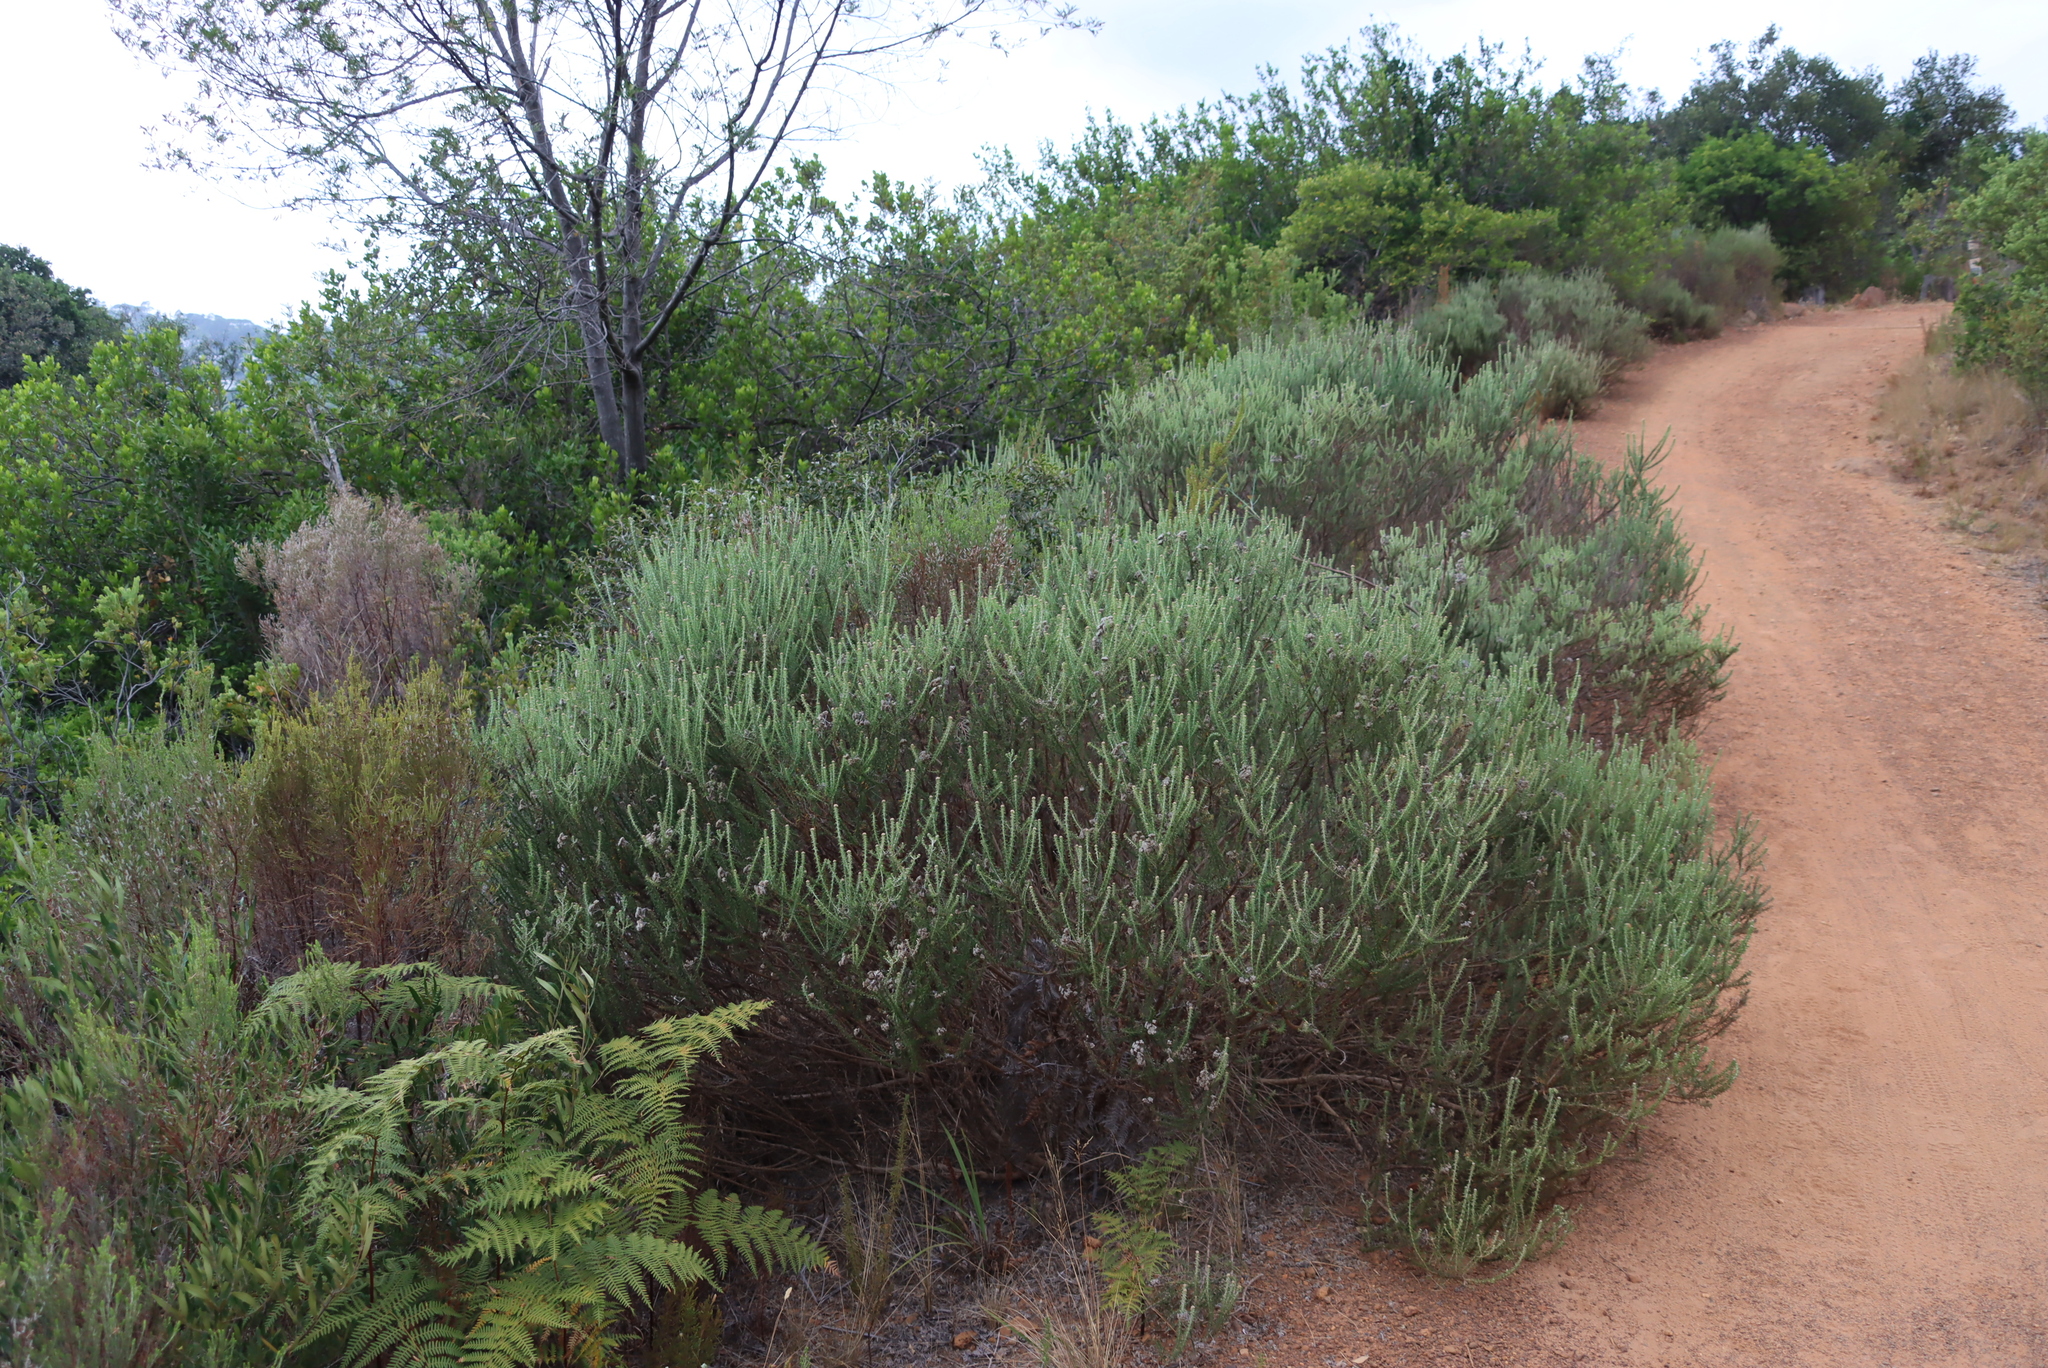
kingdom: Plantae
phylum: Tracheophyta
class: Magnoliopsida
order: Asterales
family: Asteraceae
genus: Metalasia
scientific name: Metalasia densa
